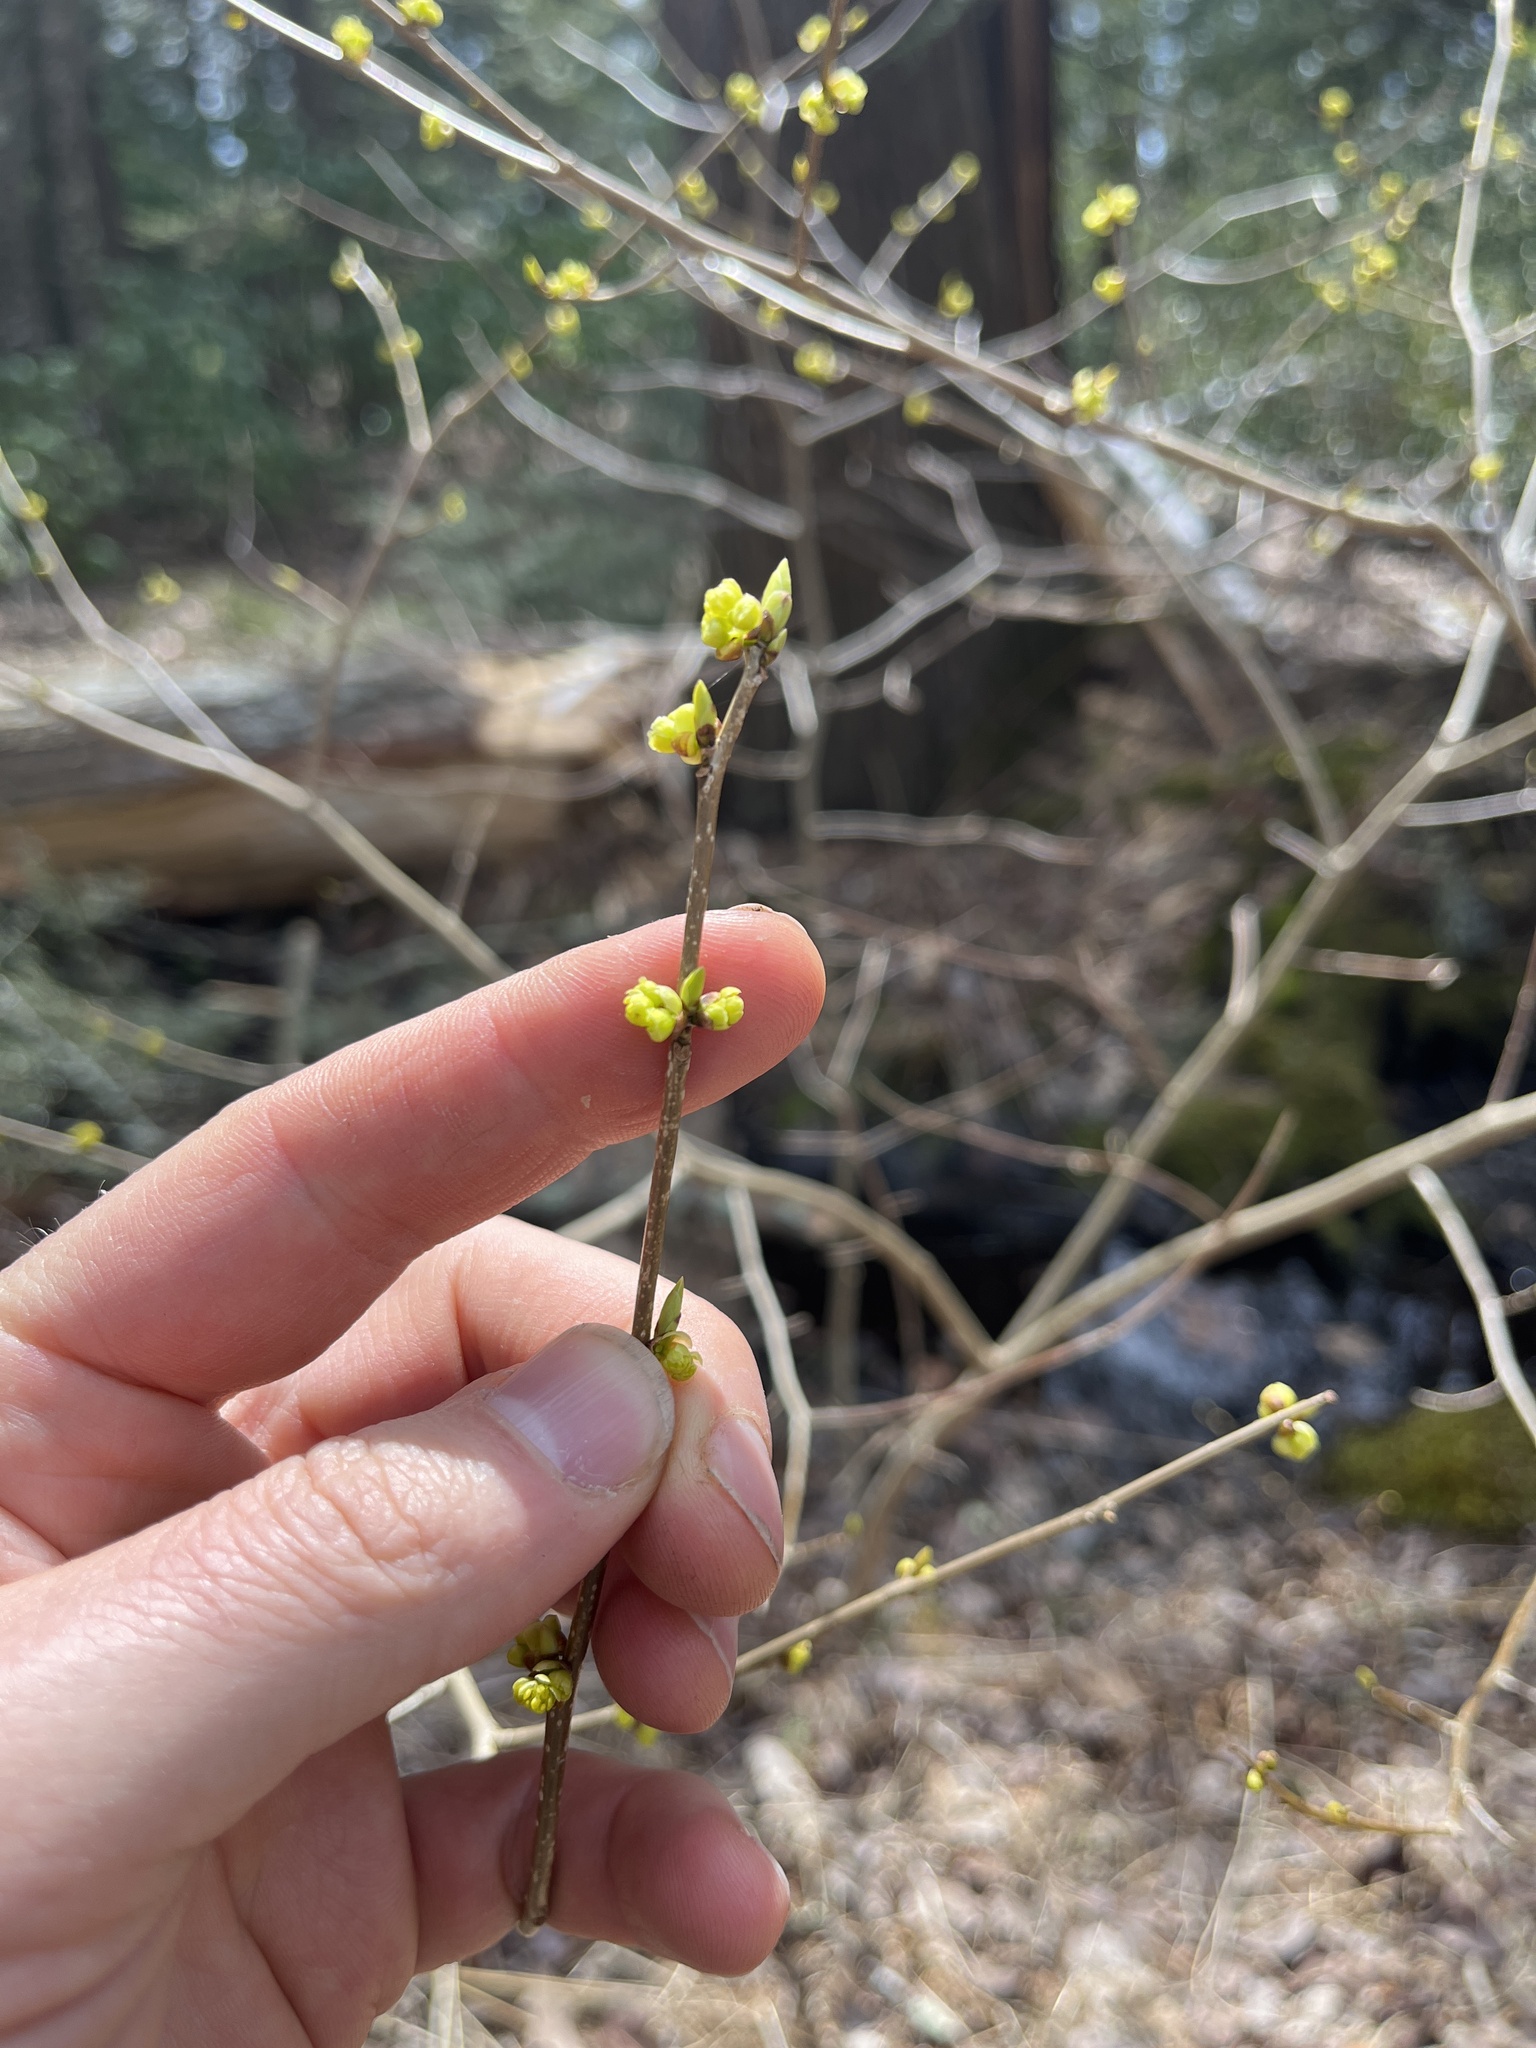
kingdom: Plantae
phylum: Tracheophyta
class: Magnoliopsida
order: Laurales
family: Lauraceae
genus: Lindera
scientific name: Lindera benzoin
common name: Spicebush
